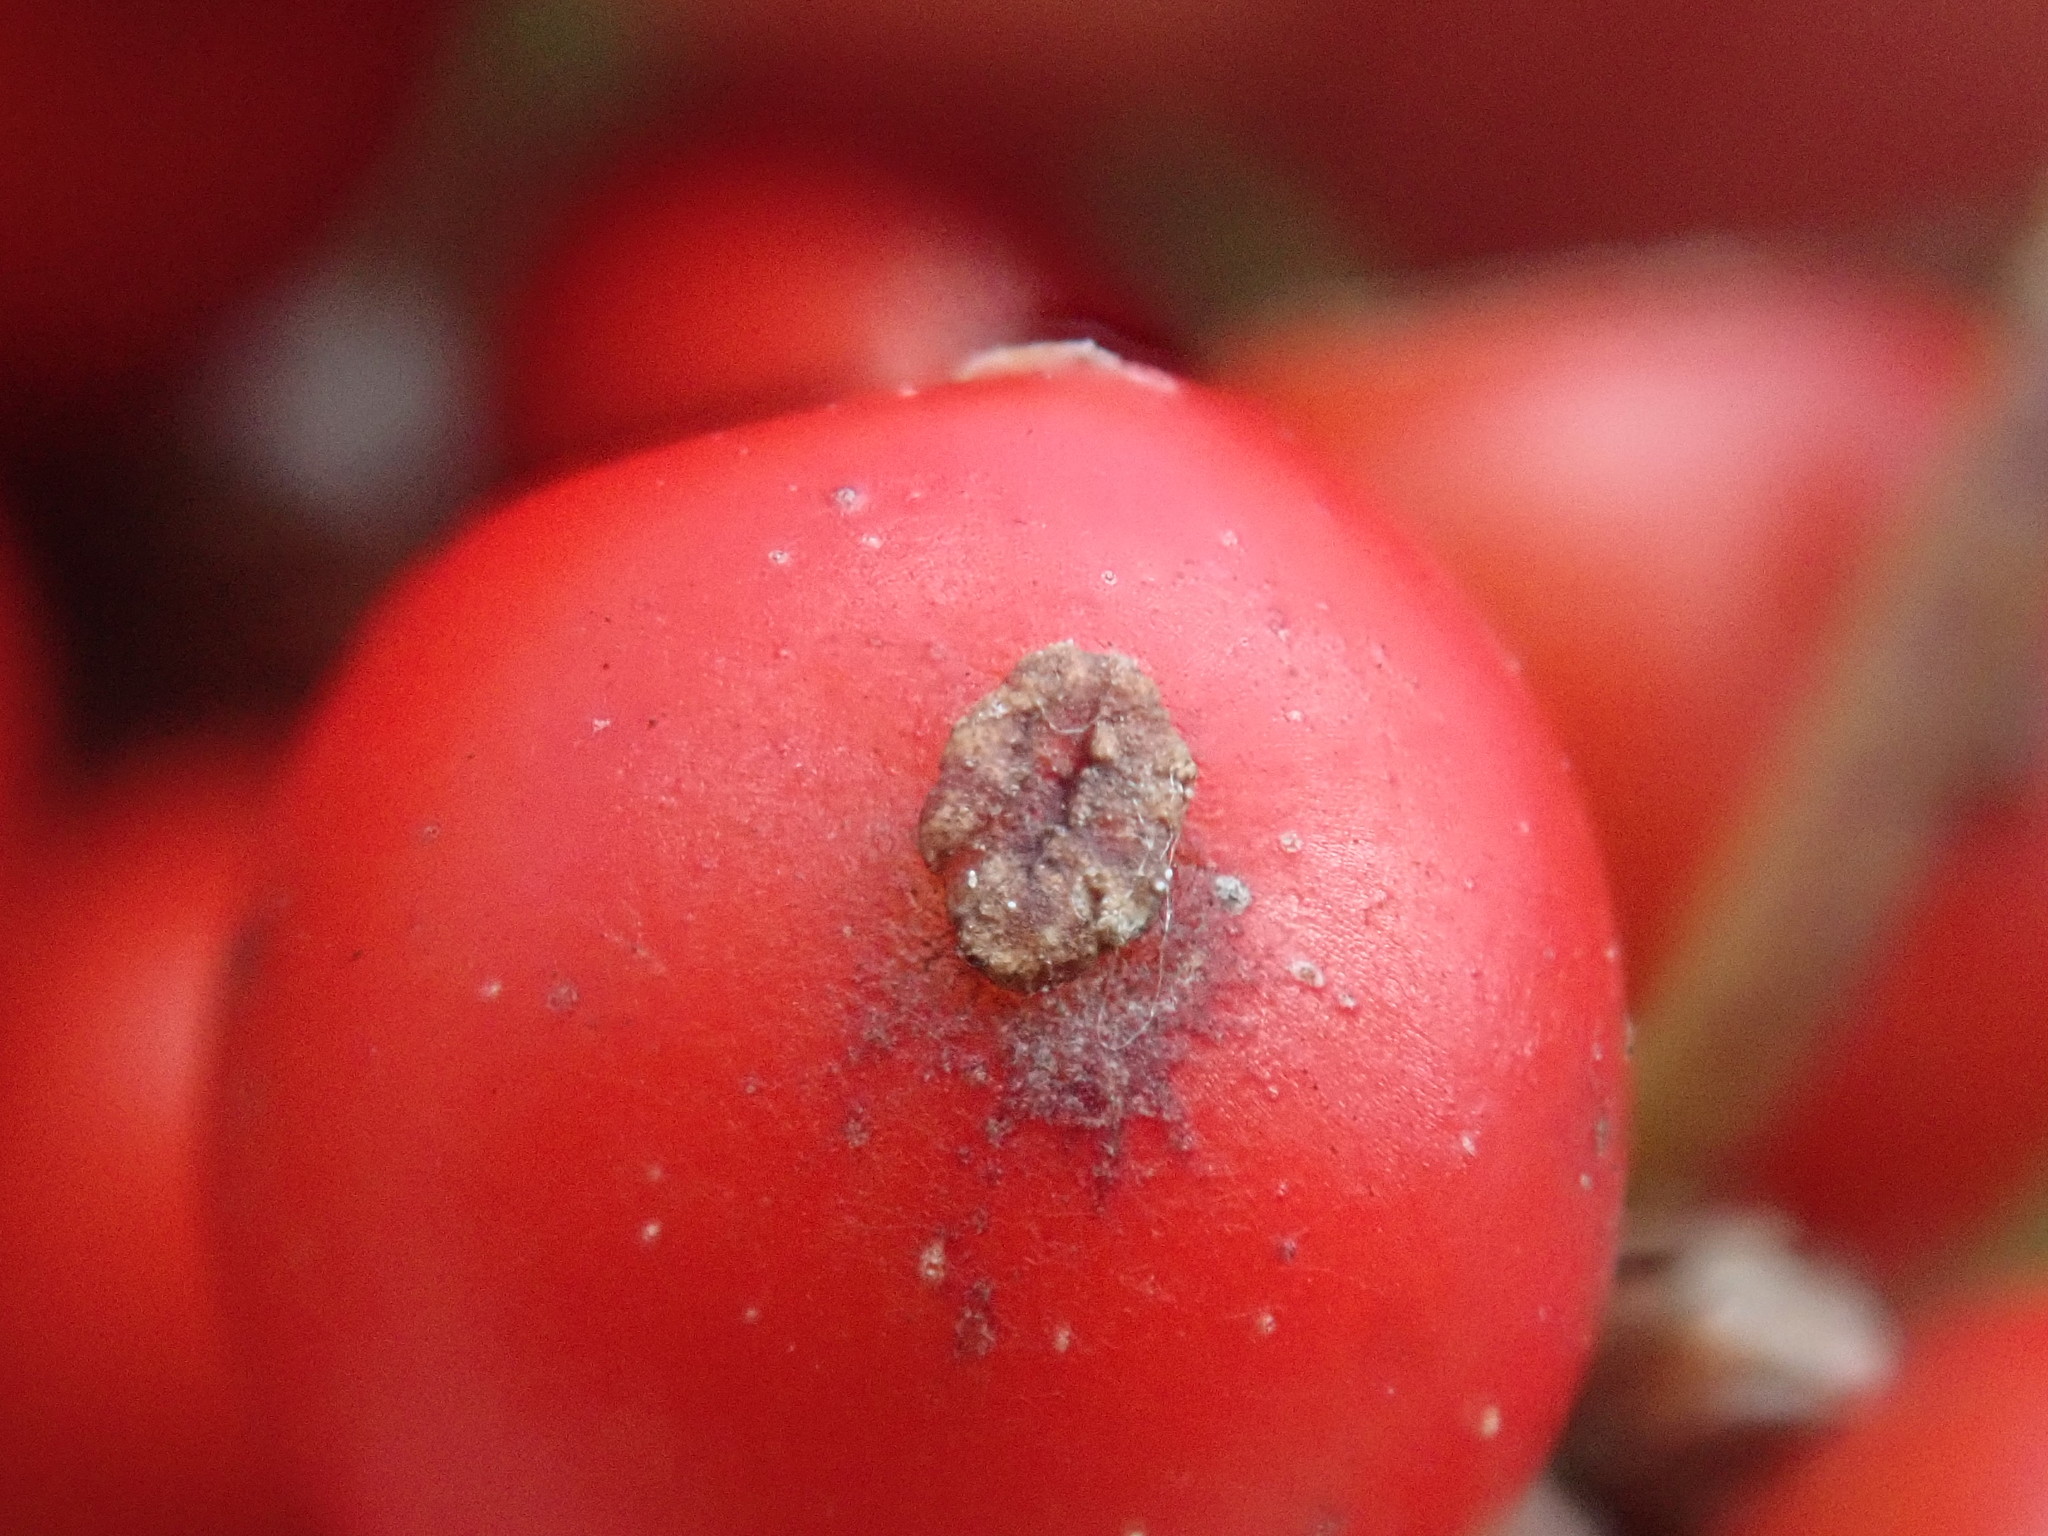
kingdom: Plantae
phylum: Tracheophyta
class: Magnoliopsida
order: Aquifoliales
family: Aquifoliaceae
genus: Ilex
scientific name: Ilex verticillata
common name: Virginia winterberry
